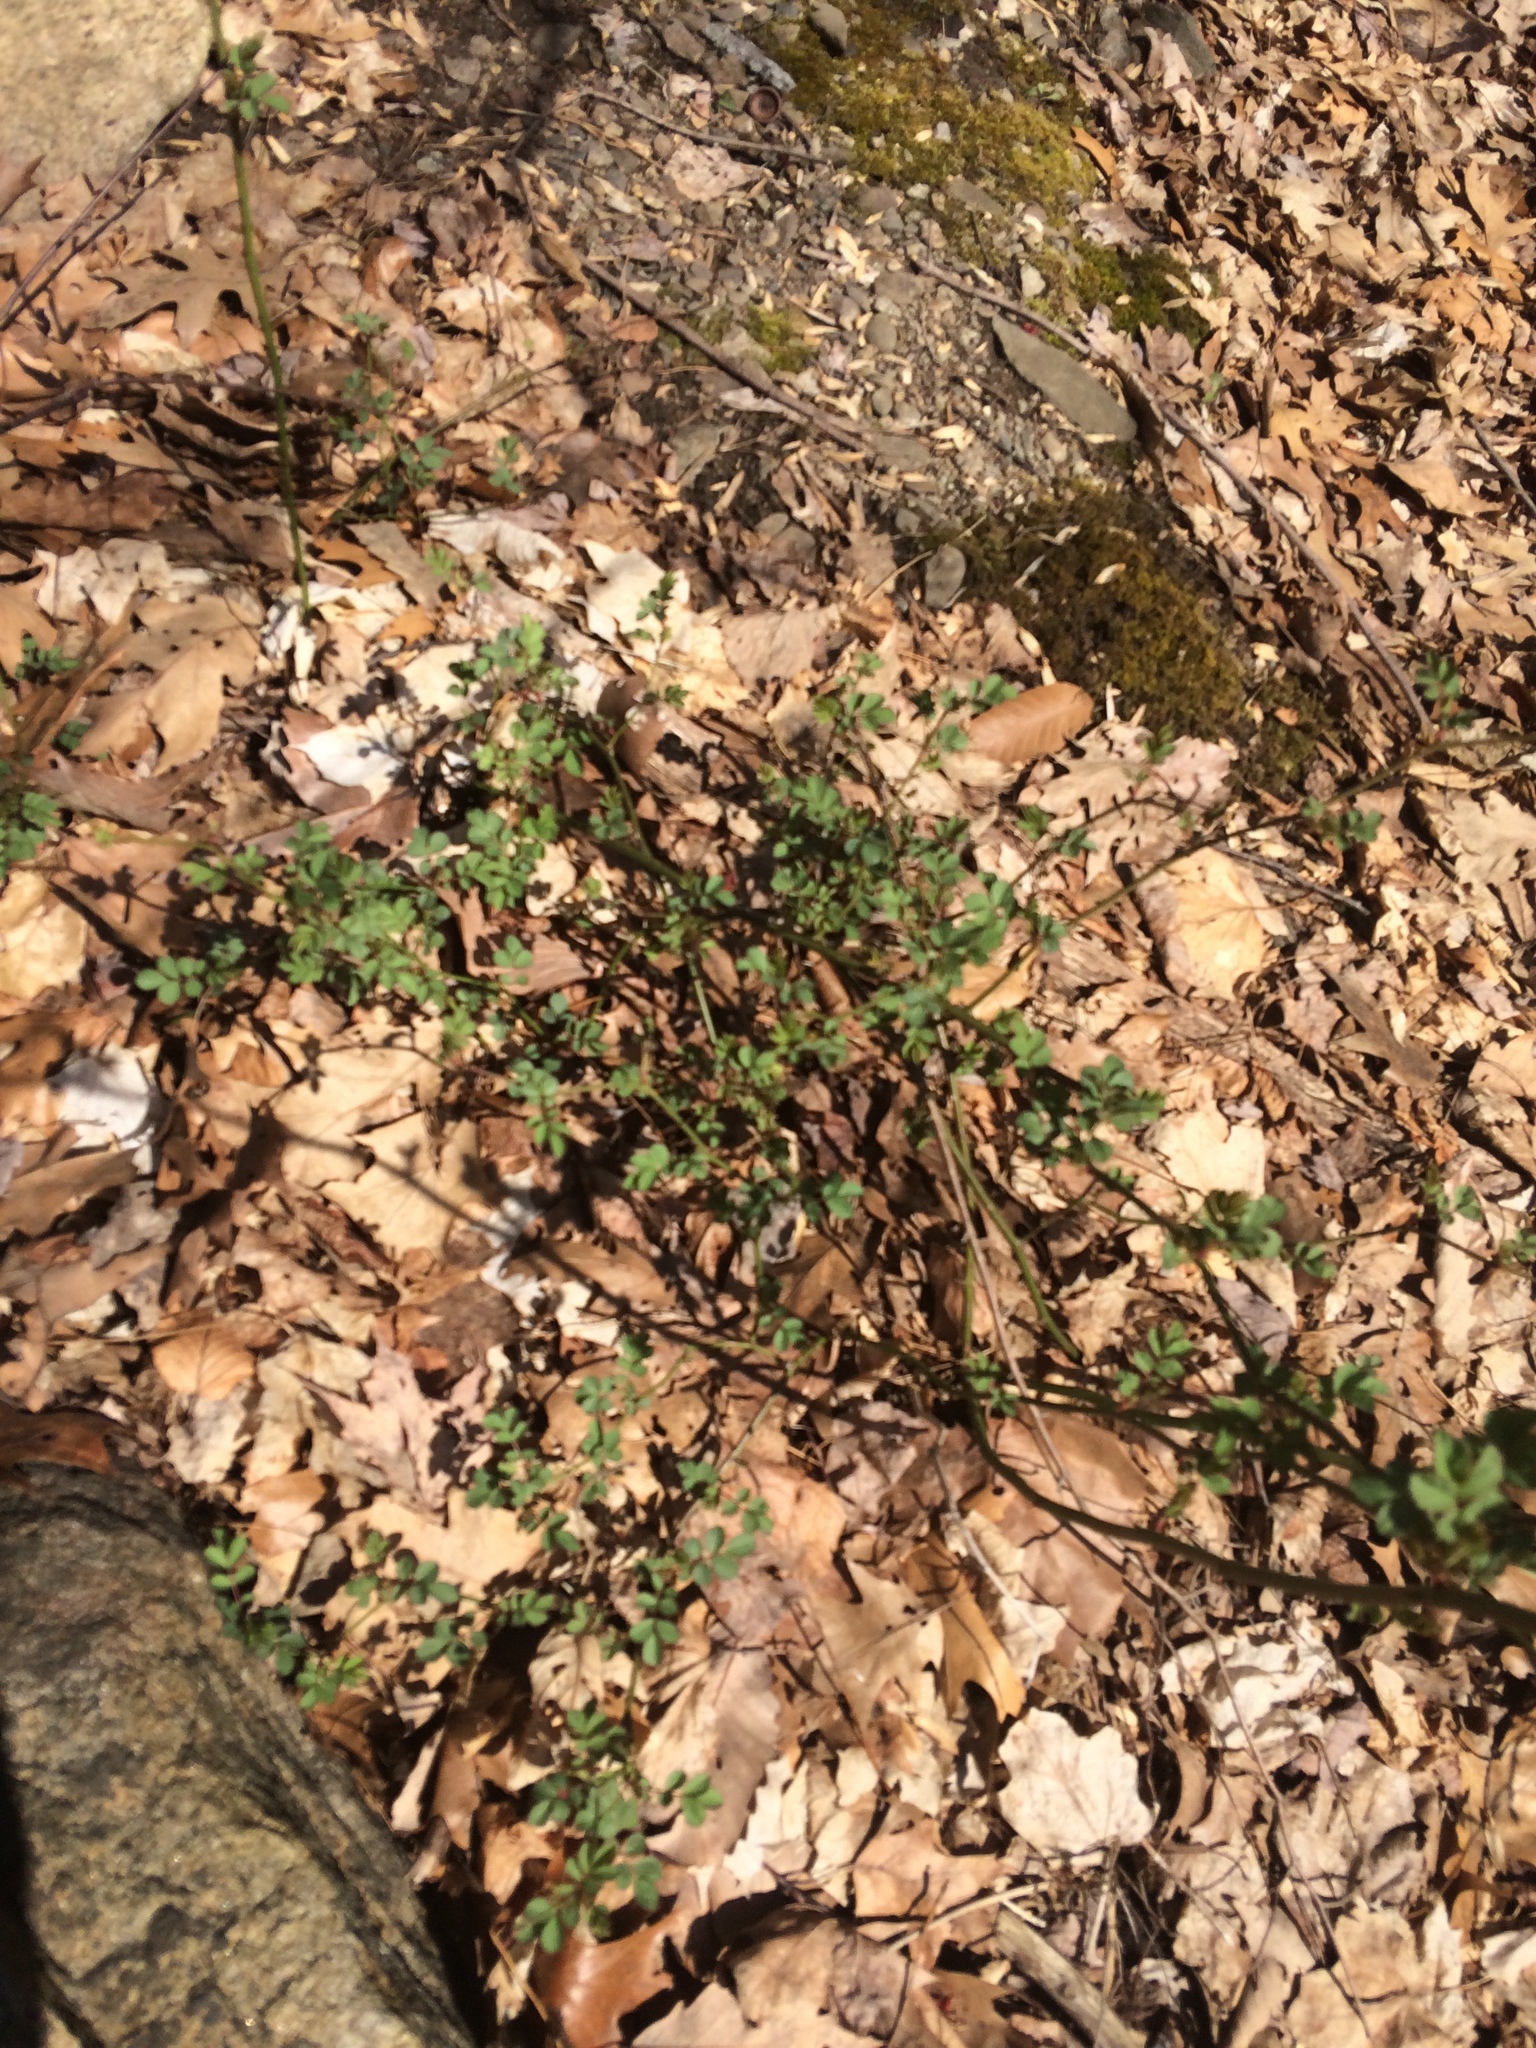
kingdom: Plantae
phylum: Tracheophyta
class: Magnoliopsida
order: Rosales
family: Rosaceae
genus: Rosa
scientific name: Rosa multiflora
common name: Multiflora rose
